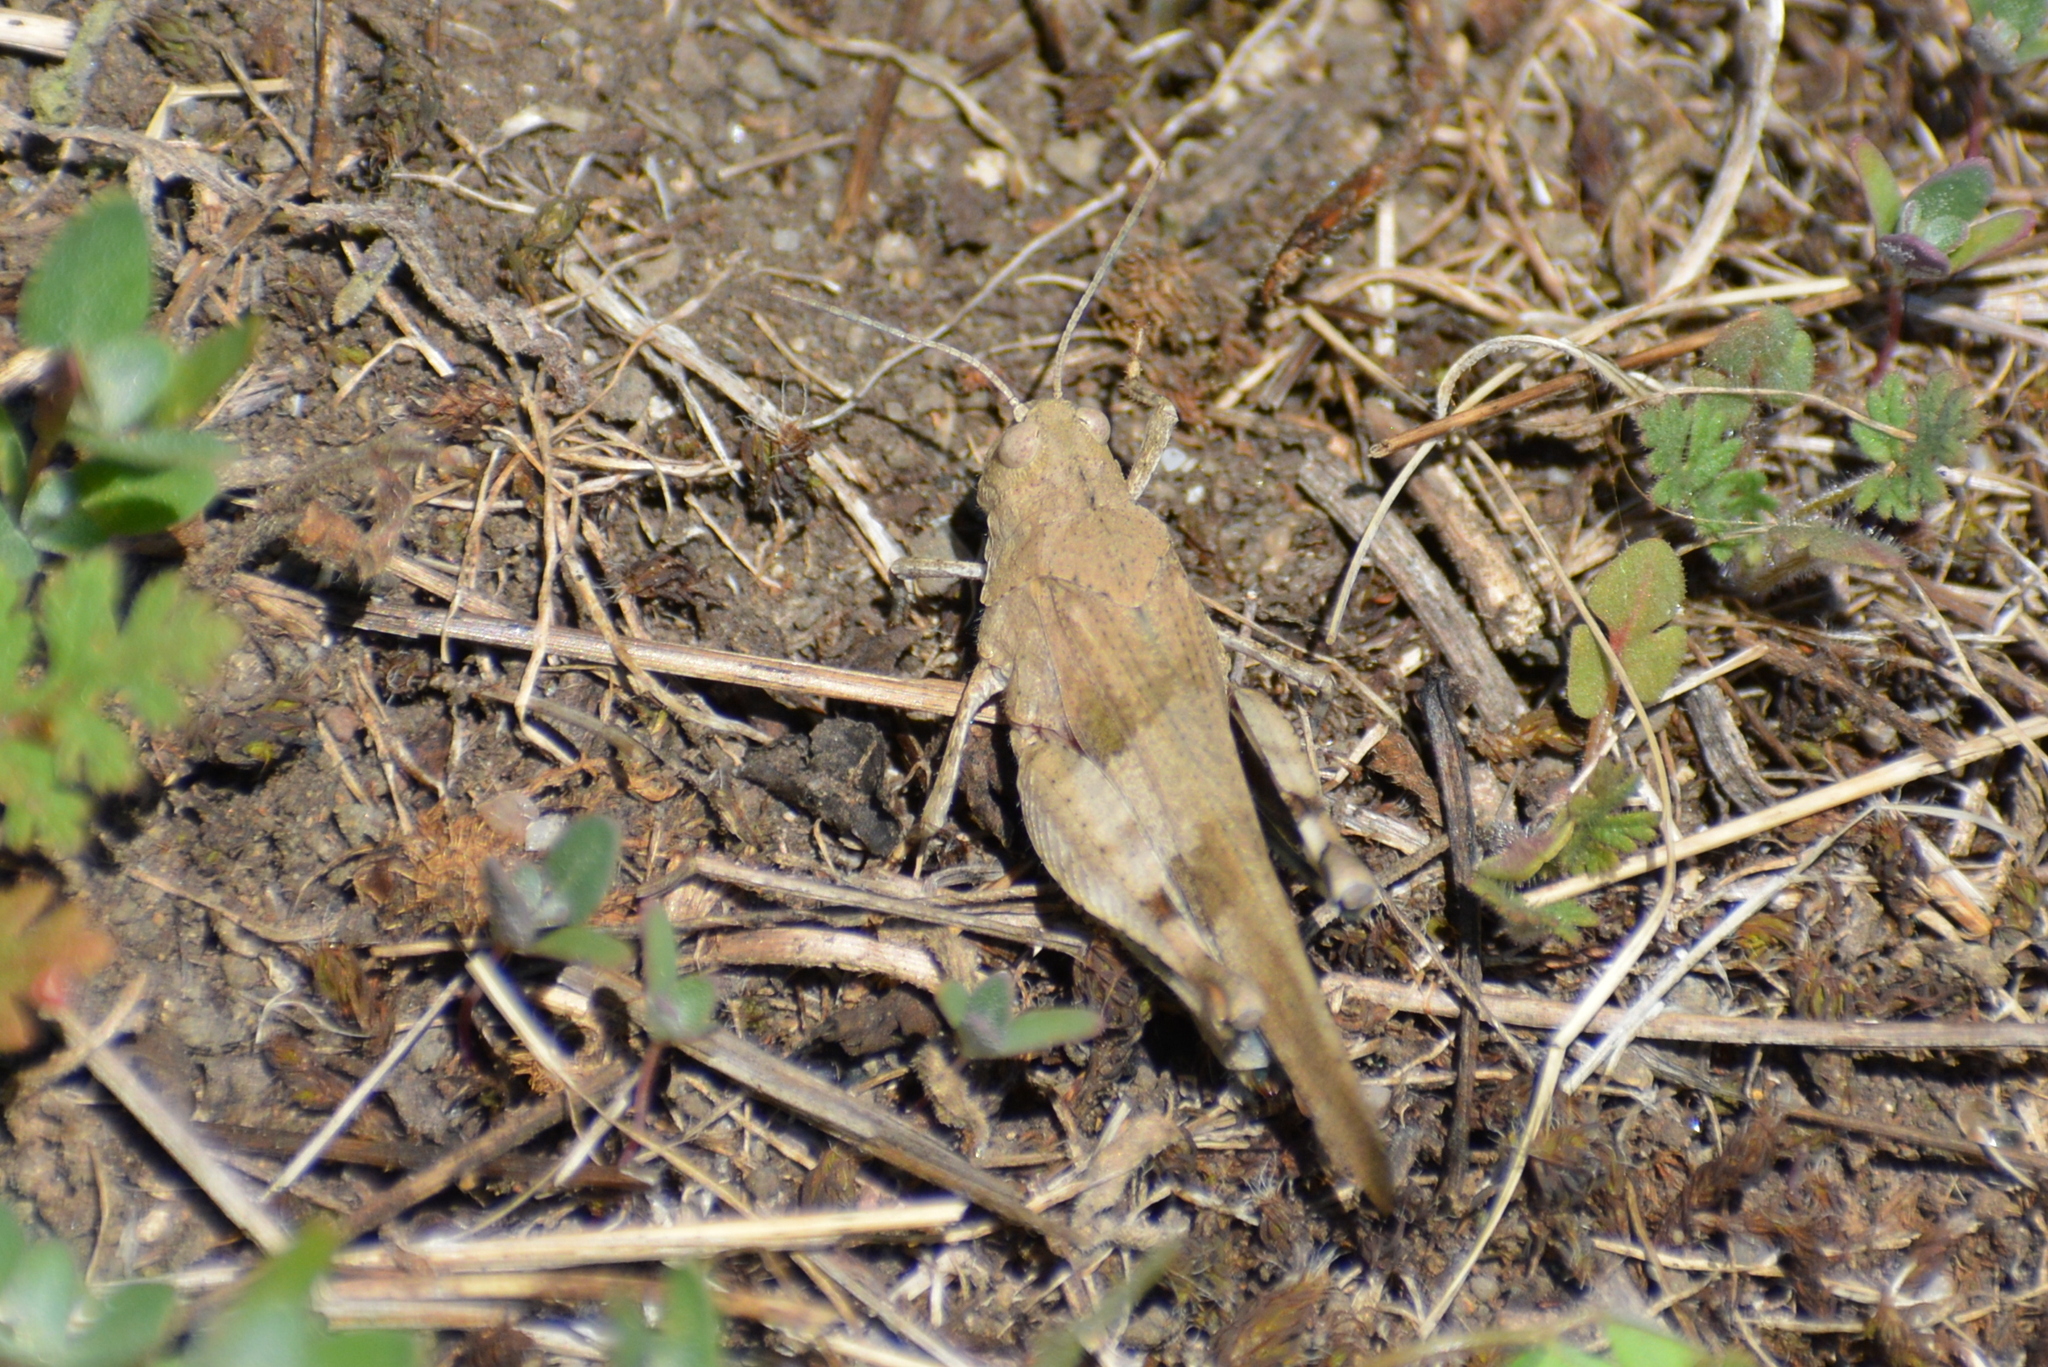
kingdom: Animalia
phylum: Arthropoda
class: Insecta
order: Orthoptera
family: Acrididae
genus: Oedipoda
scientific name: Oedipoda caerulescens
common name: Blue-winged grasshopper
